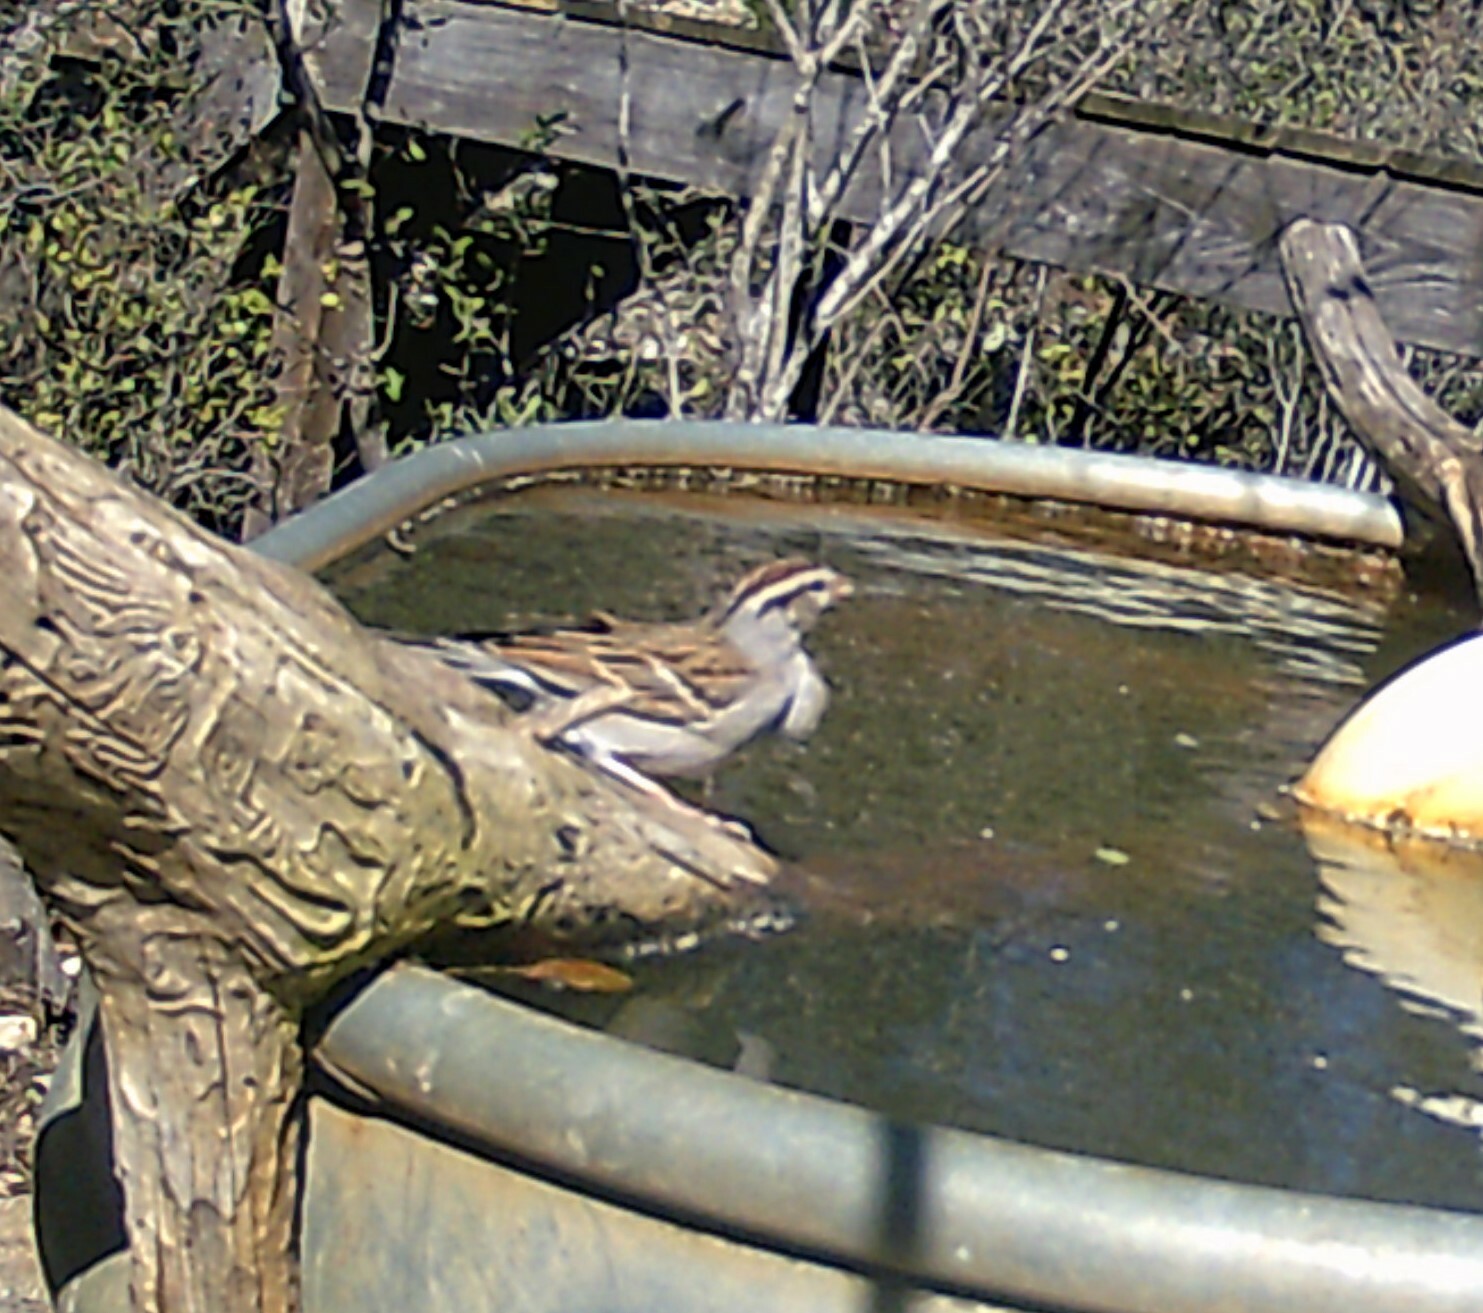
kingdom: Animalia
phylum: Chordata
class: Aves
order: Passeriformes
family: Passerellidae
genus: Spizella
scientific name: Spizella passerina
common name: Chipping sparrow
